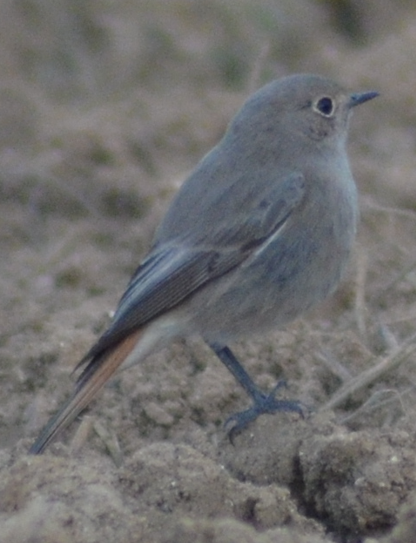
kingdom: Animalia
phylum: Chordata
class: Aves
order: Passeriformes
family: Muscicapidae
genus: Phoenicurus
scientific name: Phoenicurus ochruros
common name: Black redstart
